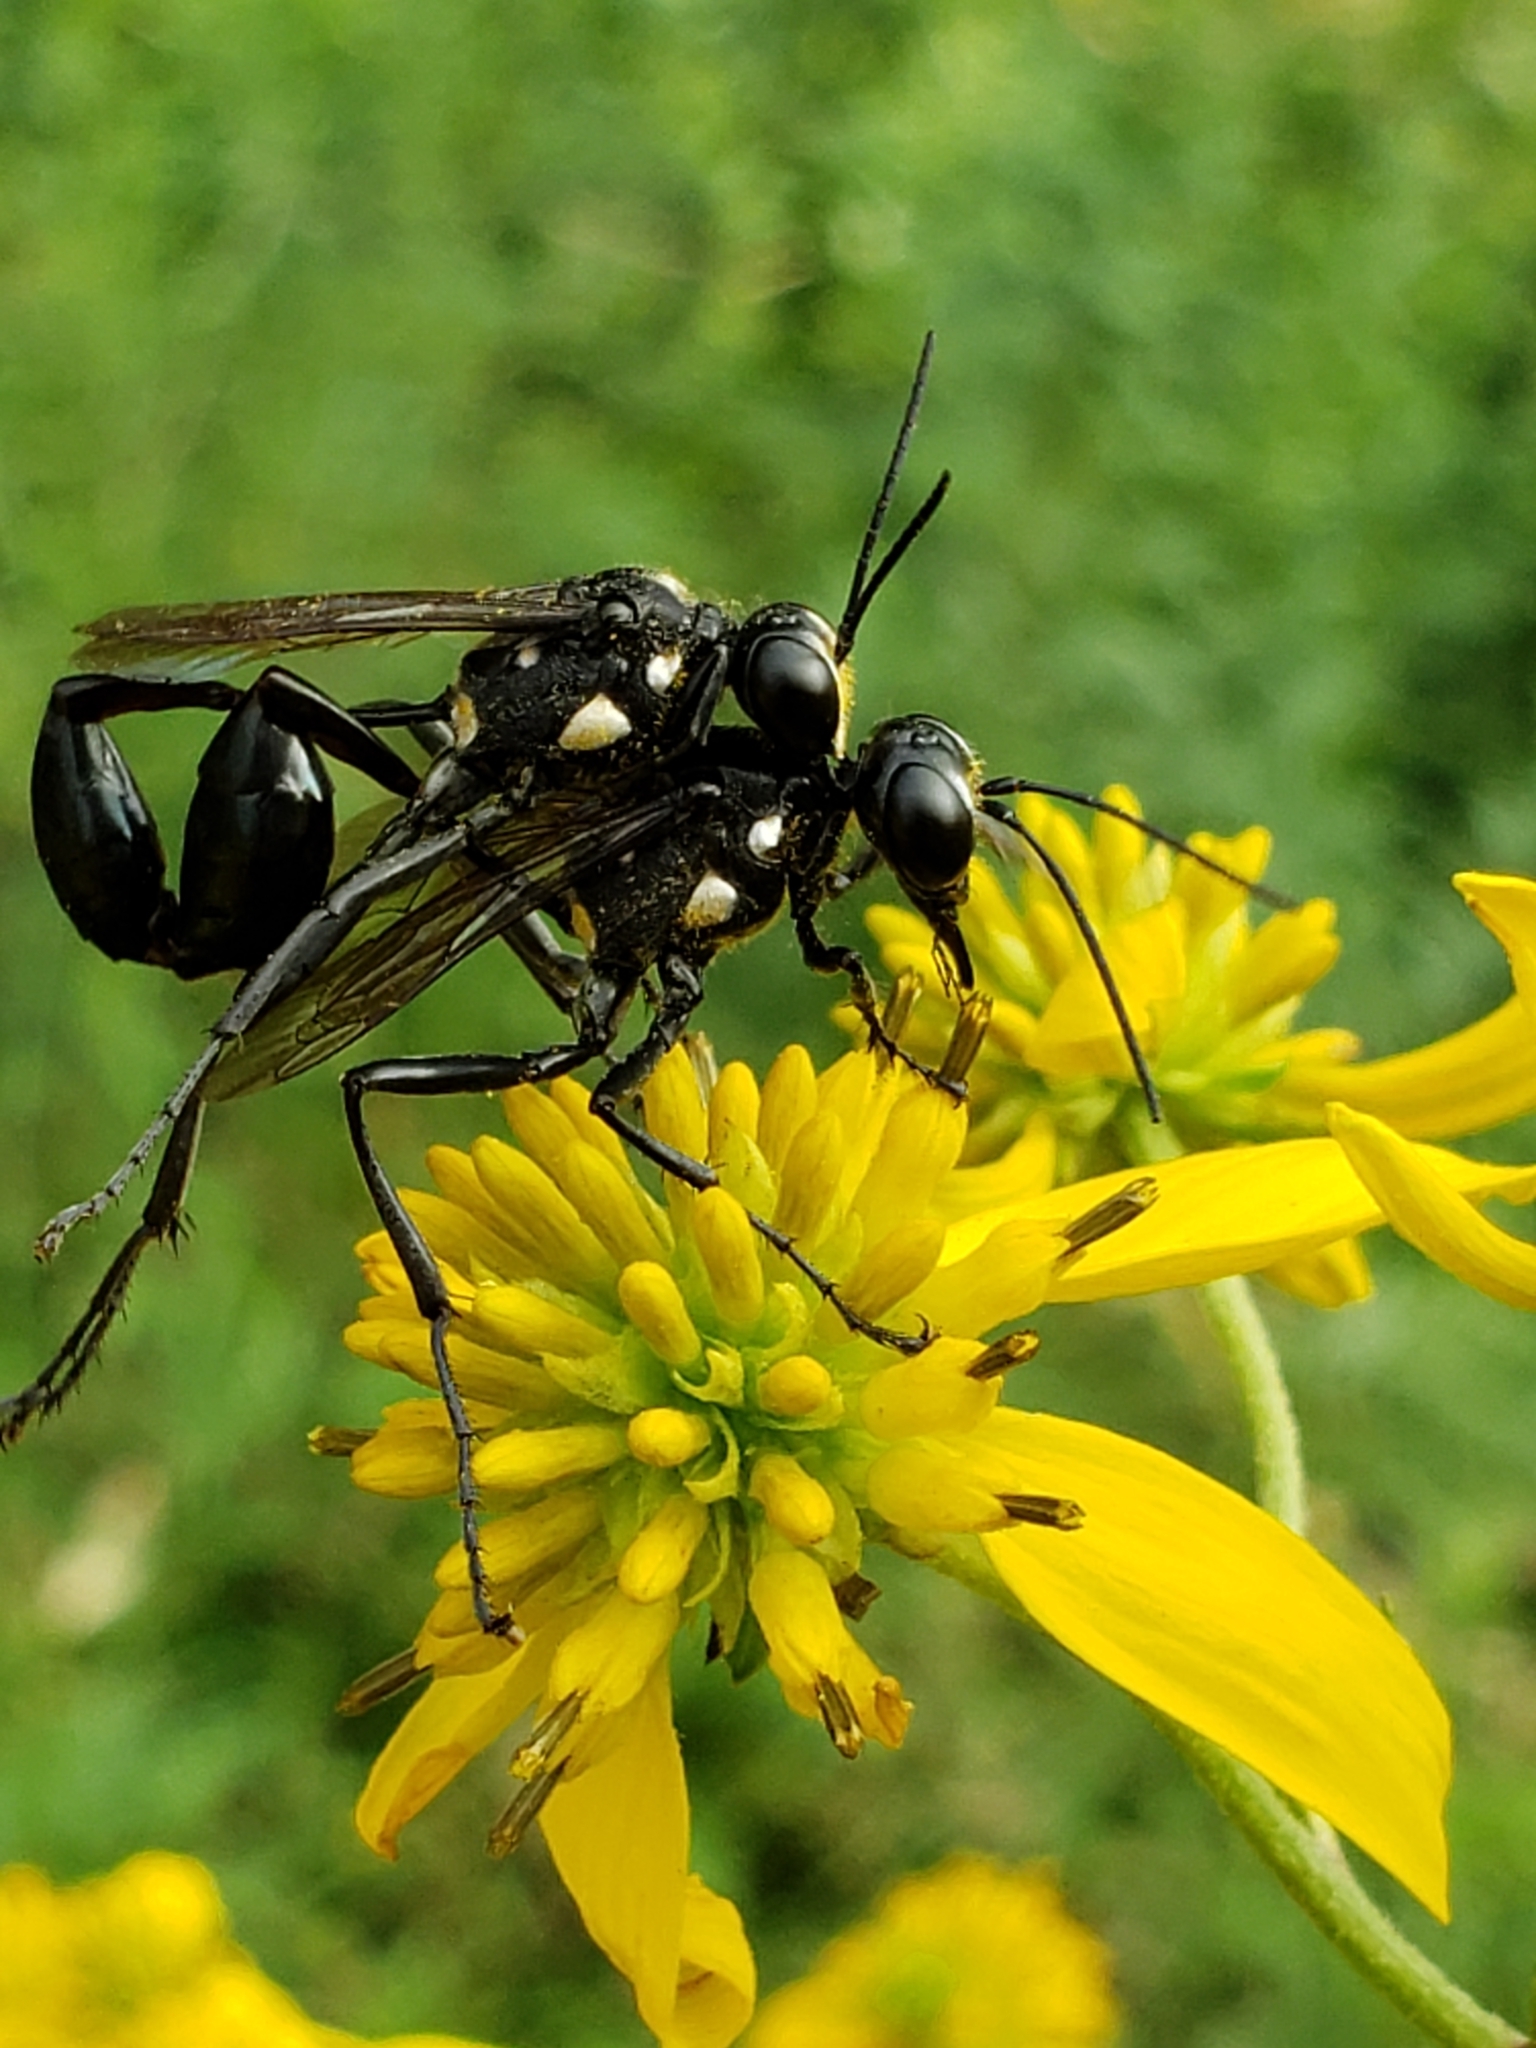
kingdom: Animalia
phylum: Arthropoda
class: Insecta
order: Hymenoptera
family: Sphecidae
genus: Eremnophila
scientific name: Eremnophila aureonotata
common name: Gold-marked thread-waisted wasp
